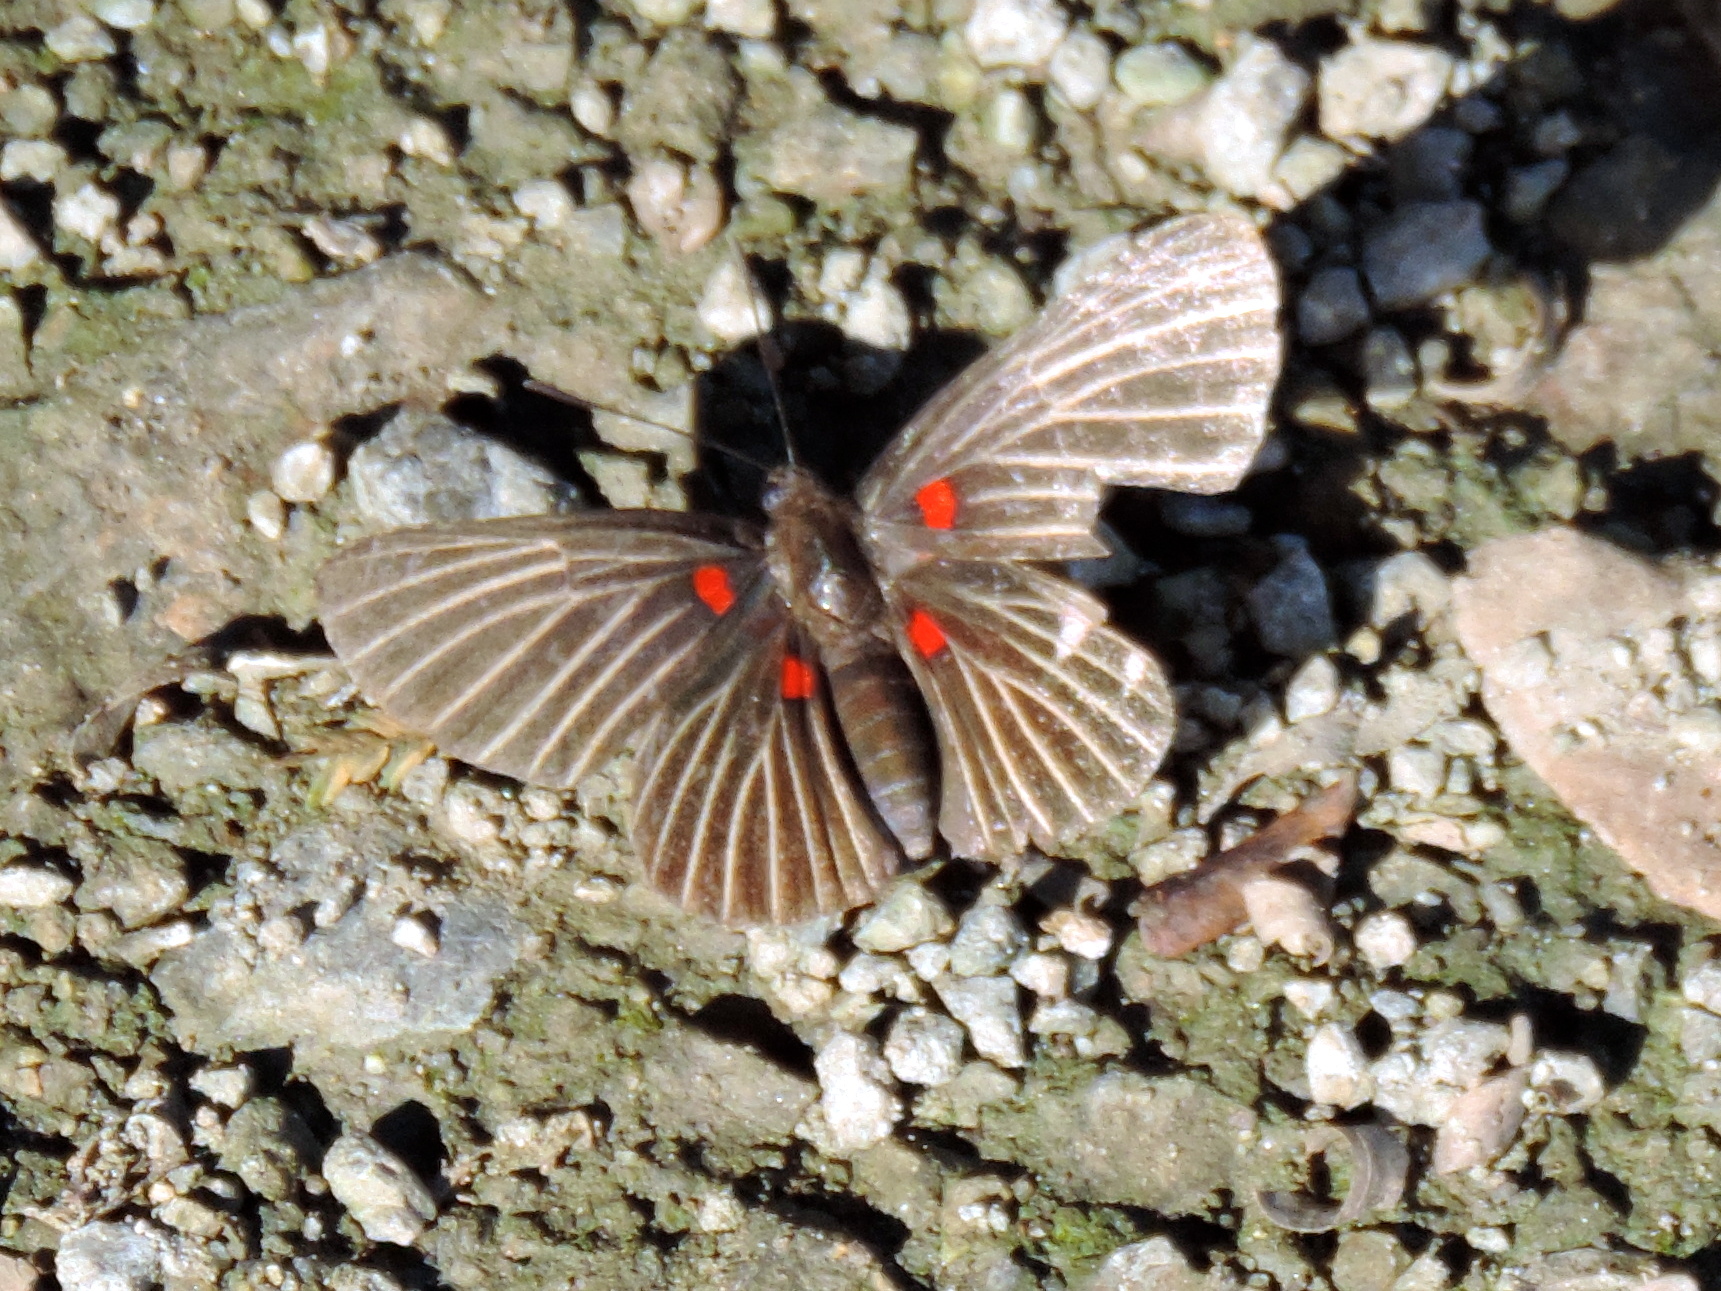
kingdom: Animalia
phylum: Arthropoda
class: Insecta
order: Lepidoptera
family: Lycaenidae
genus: Melanis
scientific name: Melanis
